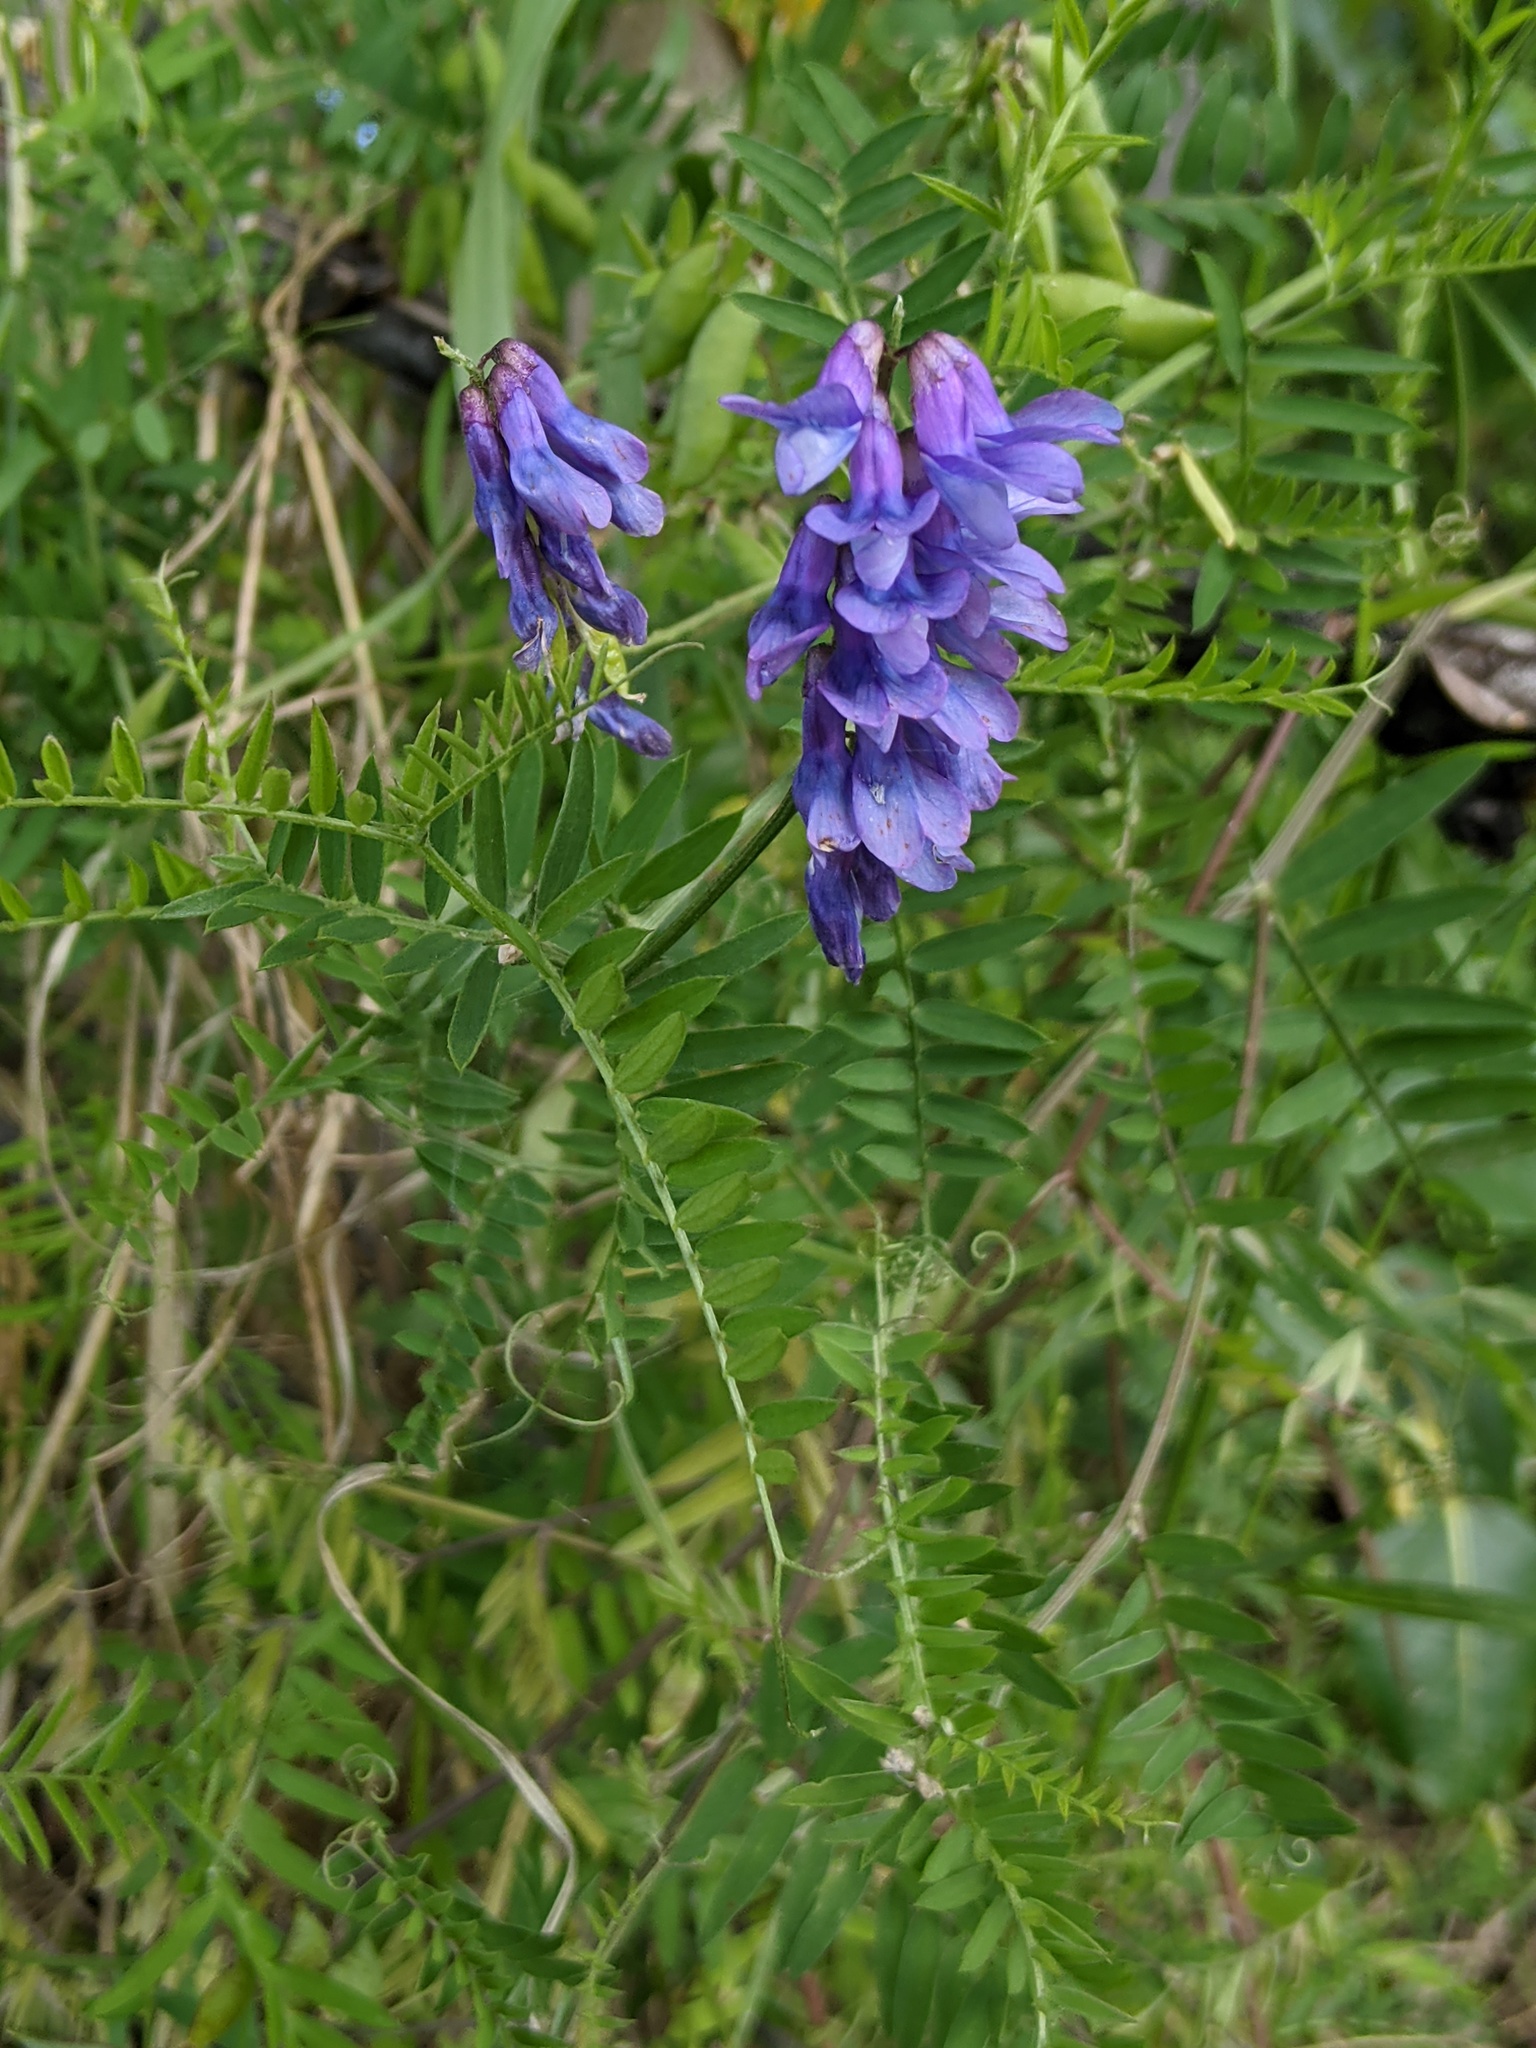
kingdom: Plantae
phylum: Tracheophyta
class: Magnoliopsida
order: Fabales
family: Fabaceae
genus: Vicia
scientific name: Vicia cracca
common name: Bird vetch
